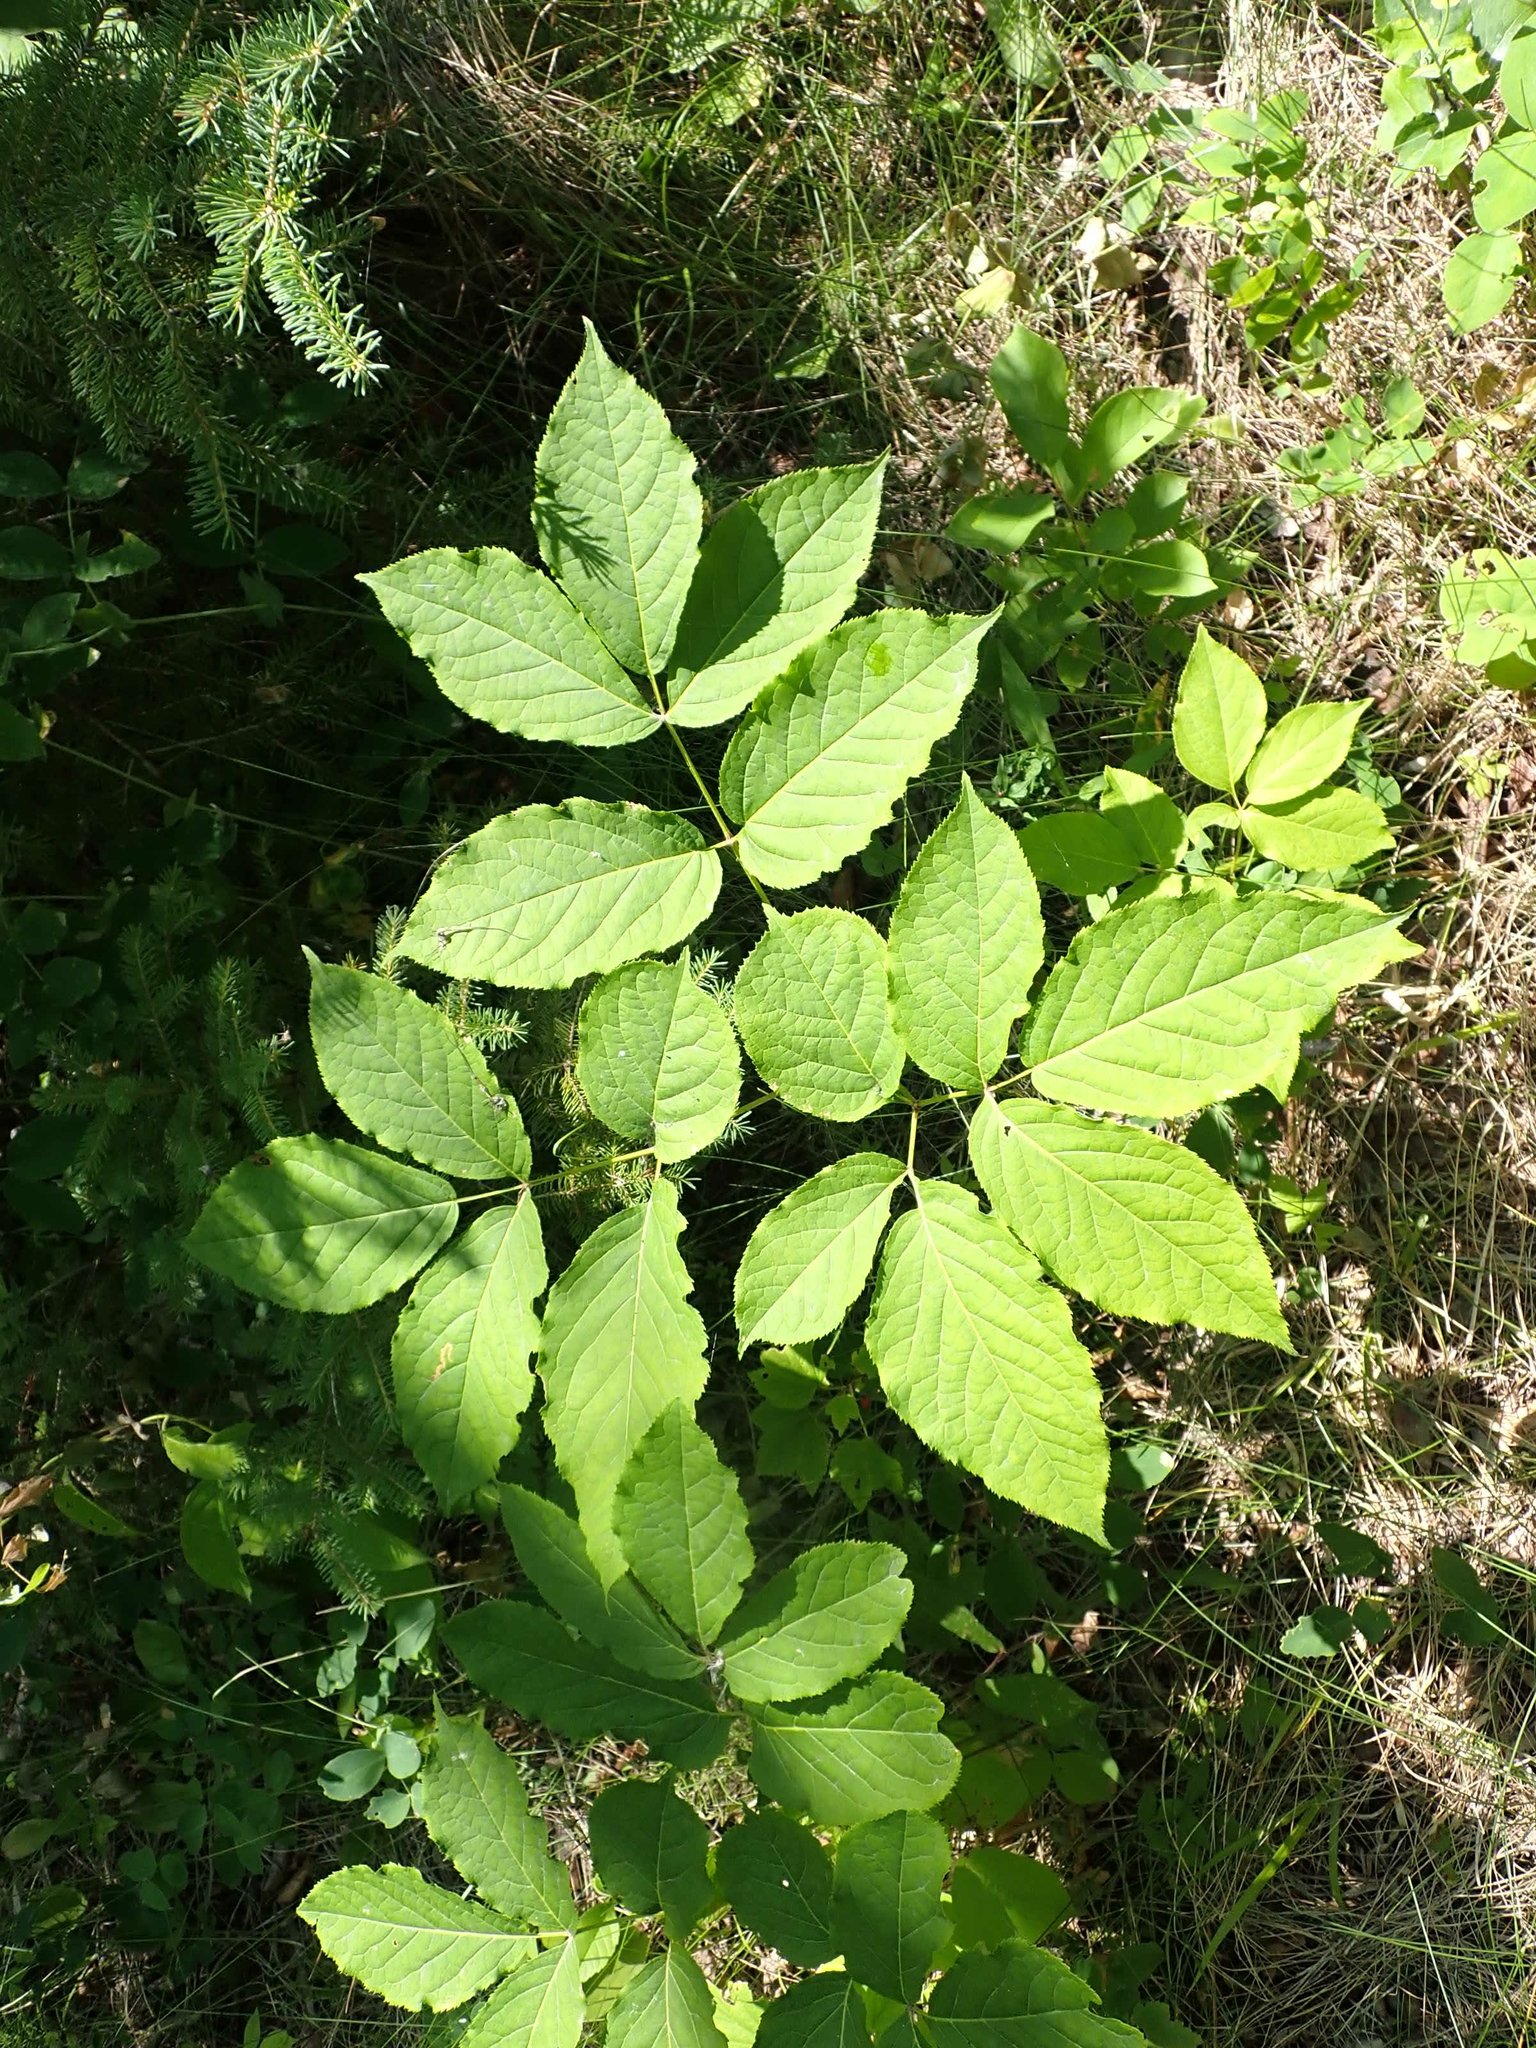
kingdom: Plantae
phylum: Tracheophyta
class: Magnoliopsida
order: Apiales
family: Araliaceae
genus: Aralia
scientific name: Aralia nudicaulis
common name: Wild sarsaparilla
